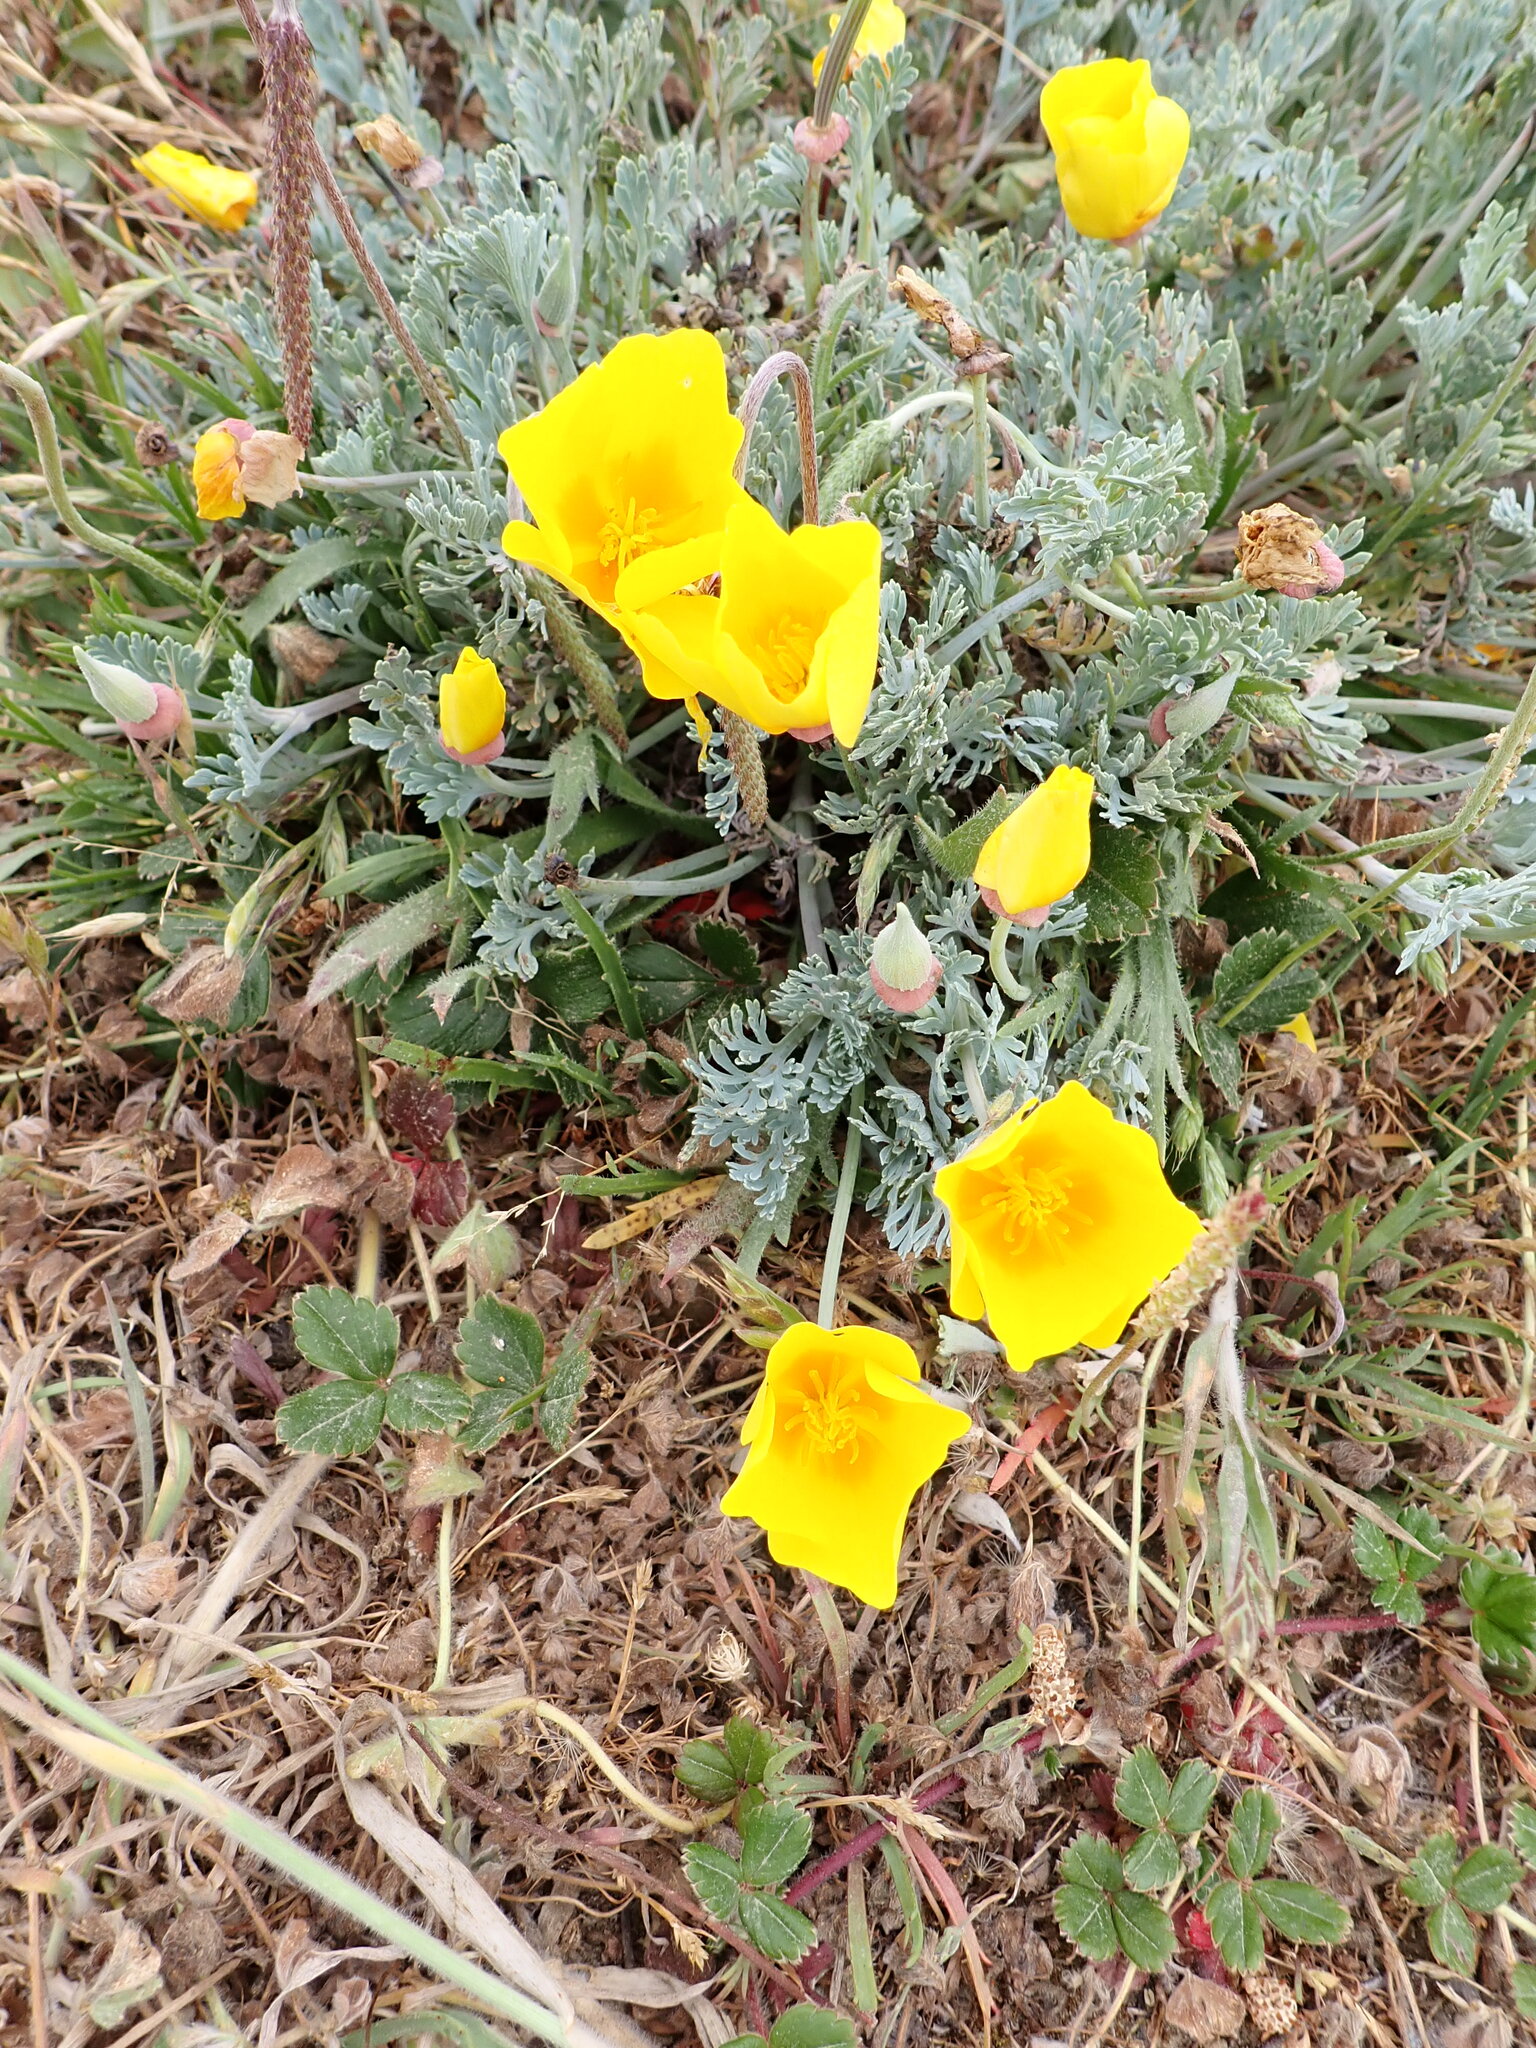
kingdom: Plantae
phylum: Tracheophyta
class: Magnoliopsida
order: Ranunculales
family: Papaveraceae
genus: Eschscholzia
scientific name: Eschscholzia californica
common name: California poppy
